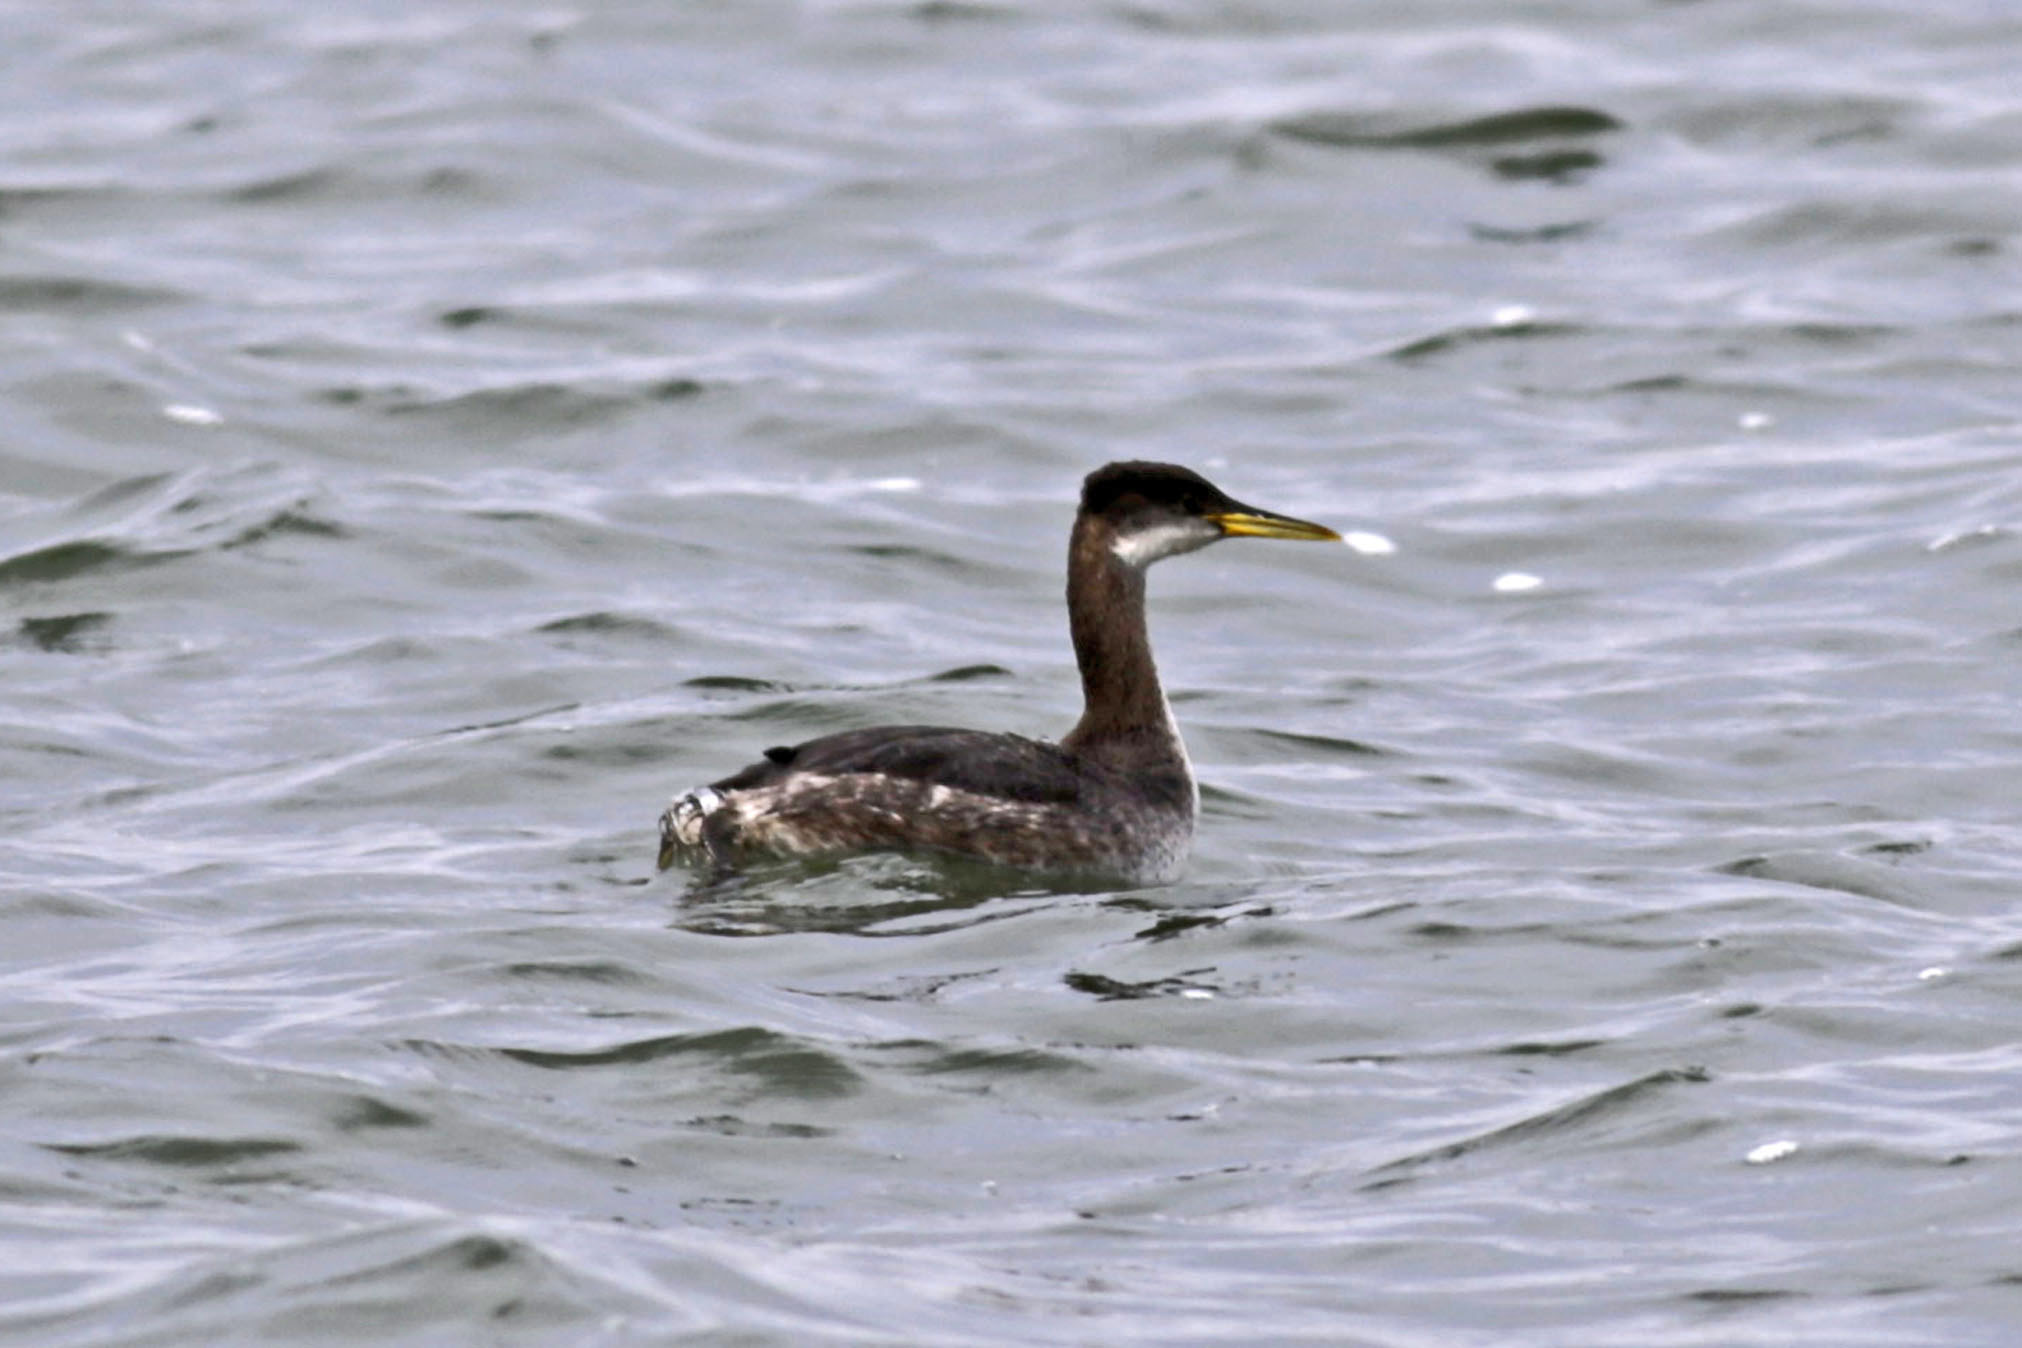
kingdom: Animalia
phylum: Chordata
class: Aves
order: Podicipediformes
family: Podicipedidae
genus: Podiceps
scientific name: Podiceps grisegena
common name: Red-necked grebe
